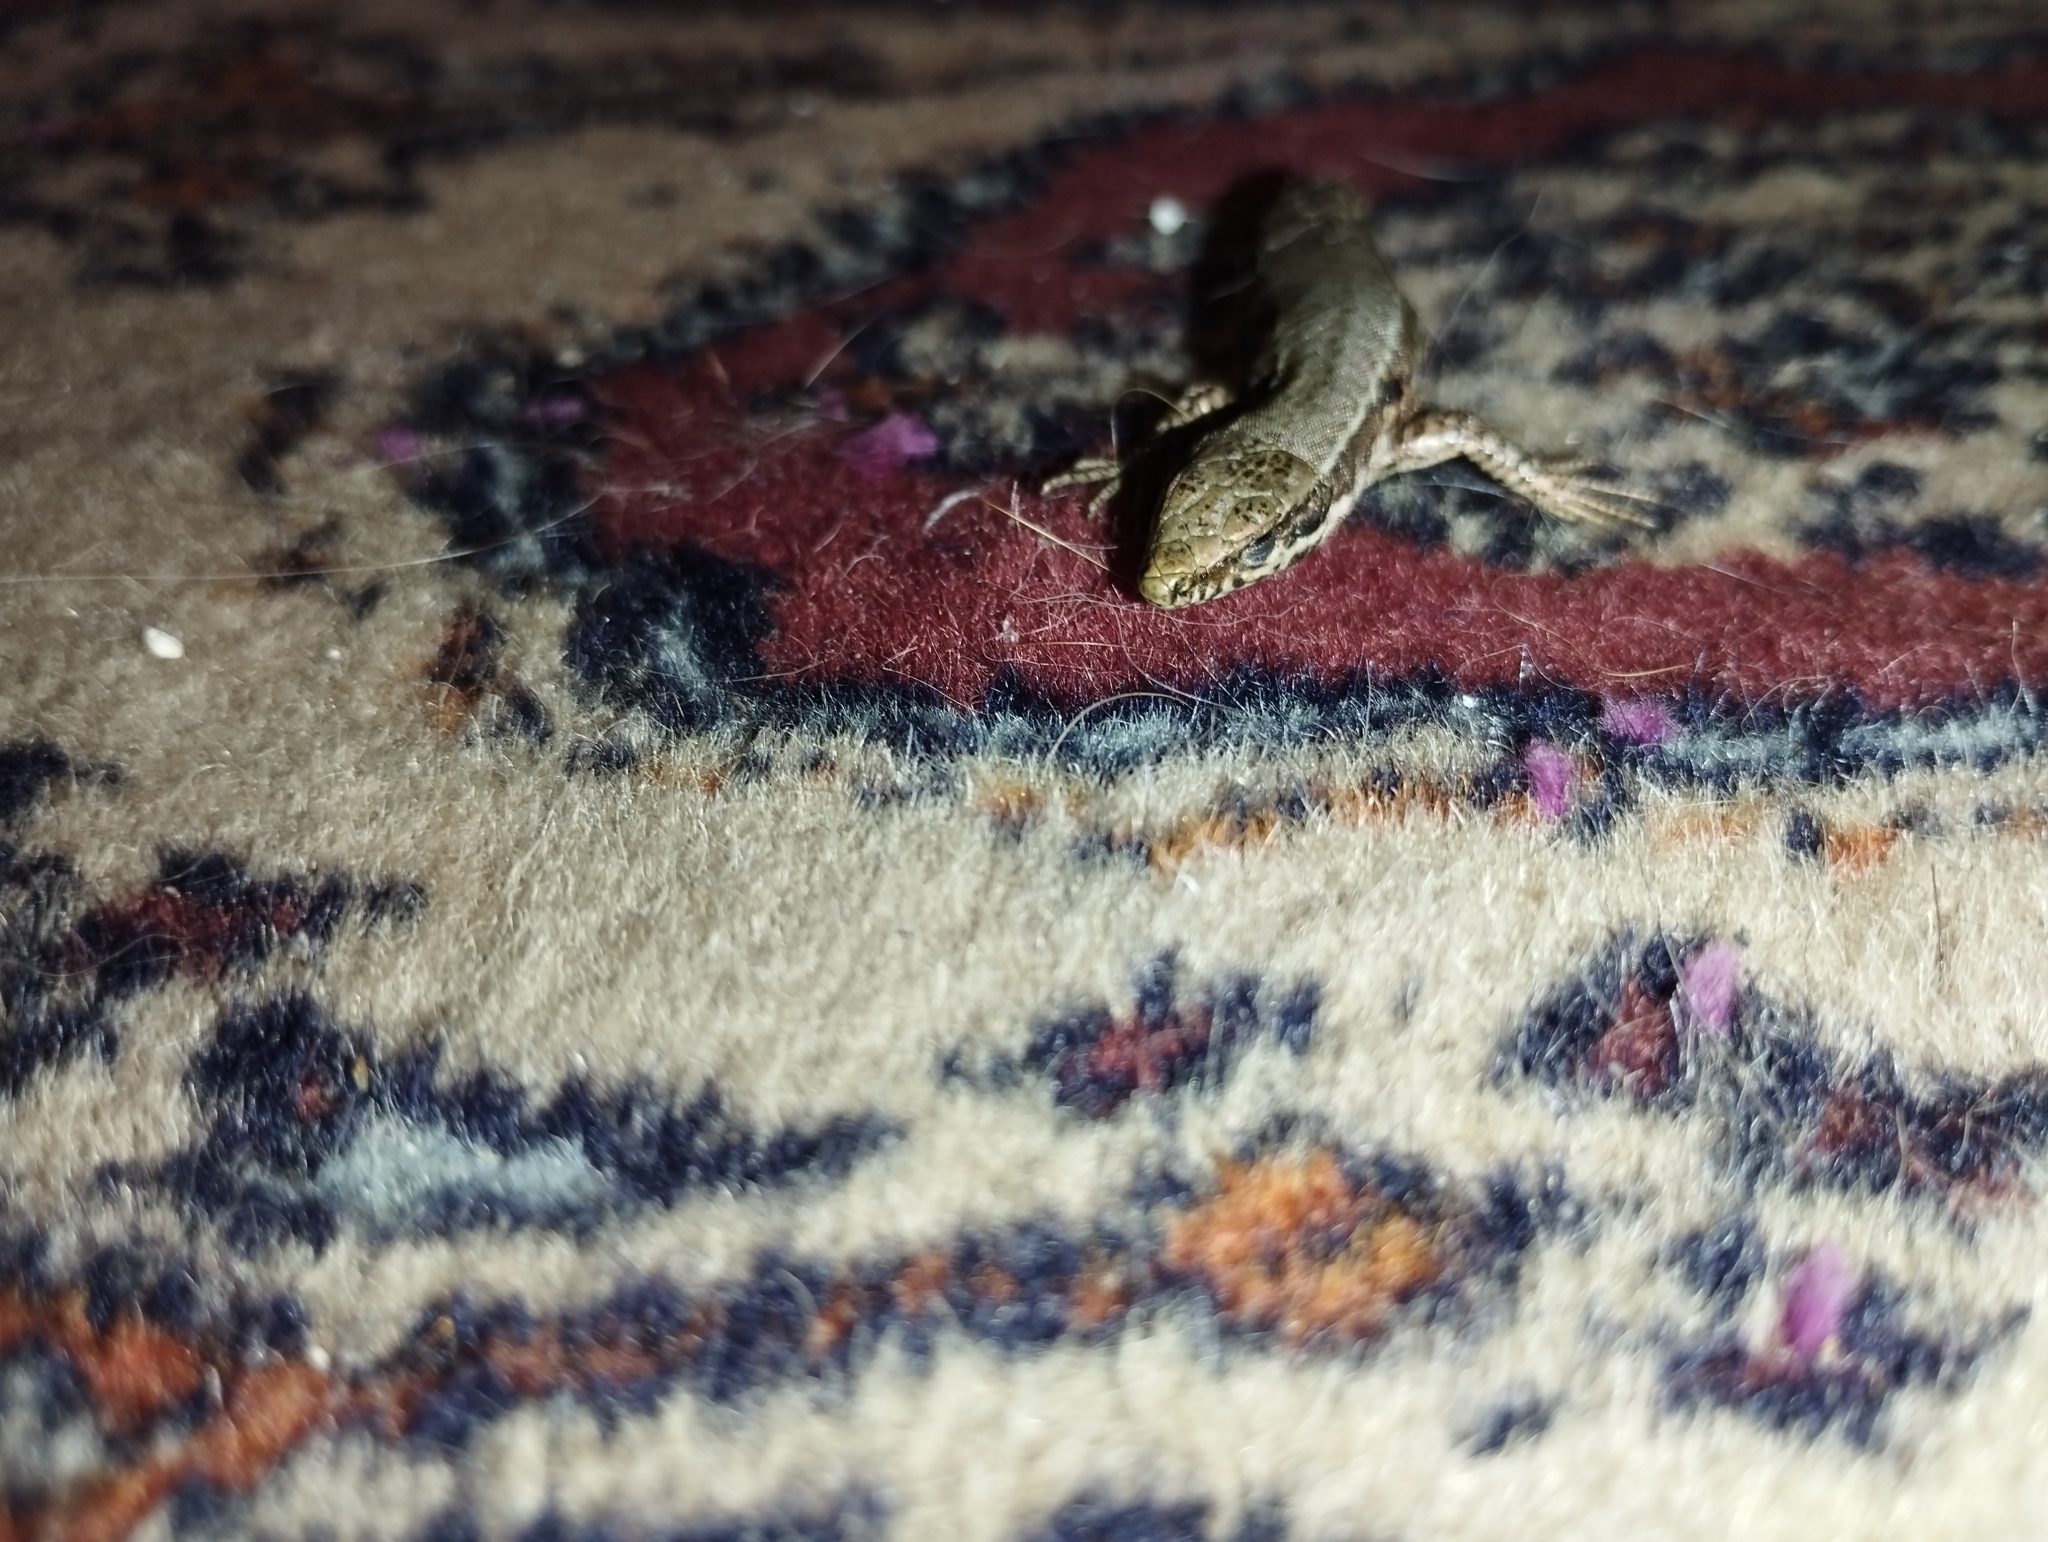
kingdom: Animalia
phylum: Chordata
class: Squamata
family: Lacertidae
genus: Podarcis
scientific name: Podarcis muralis
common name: Common wall lizard
